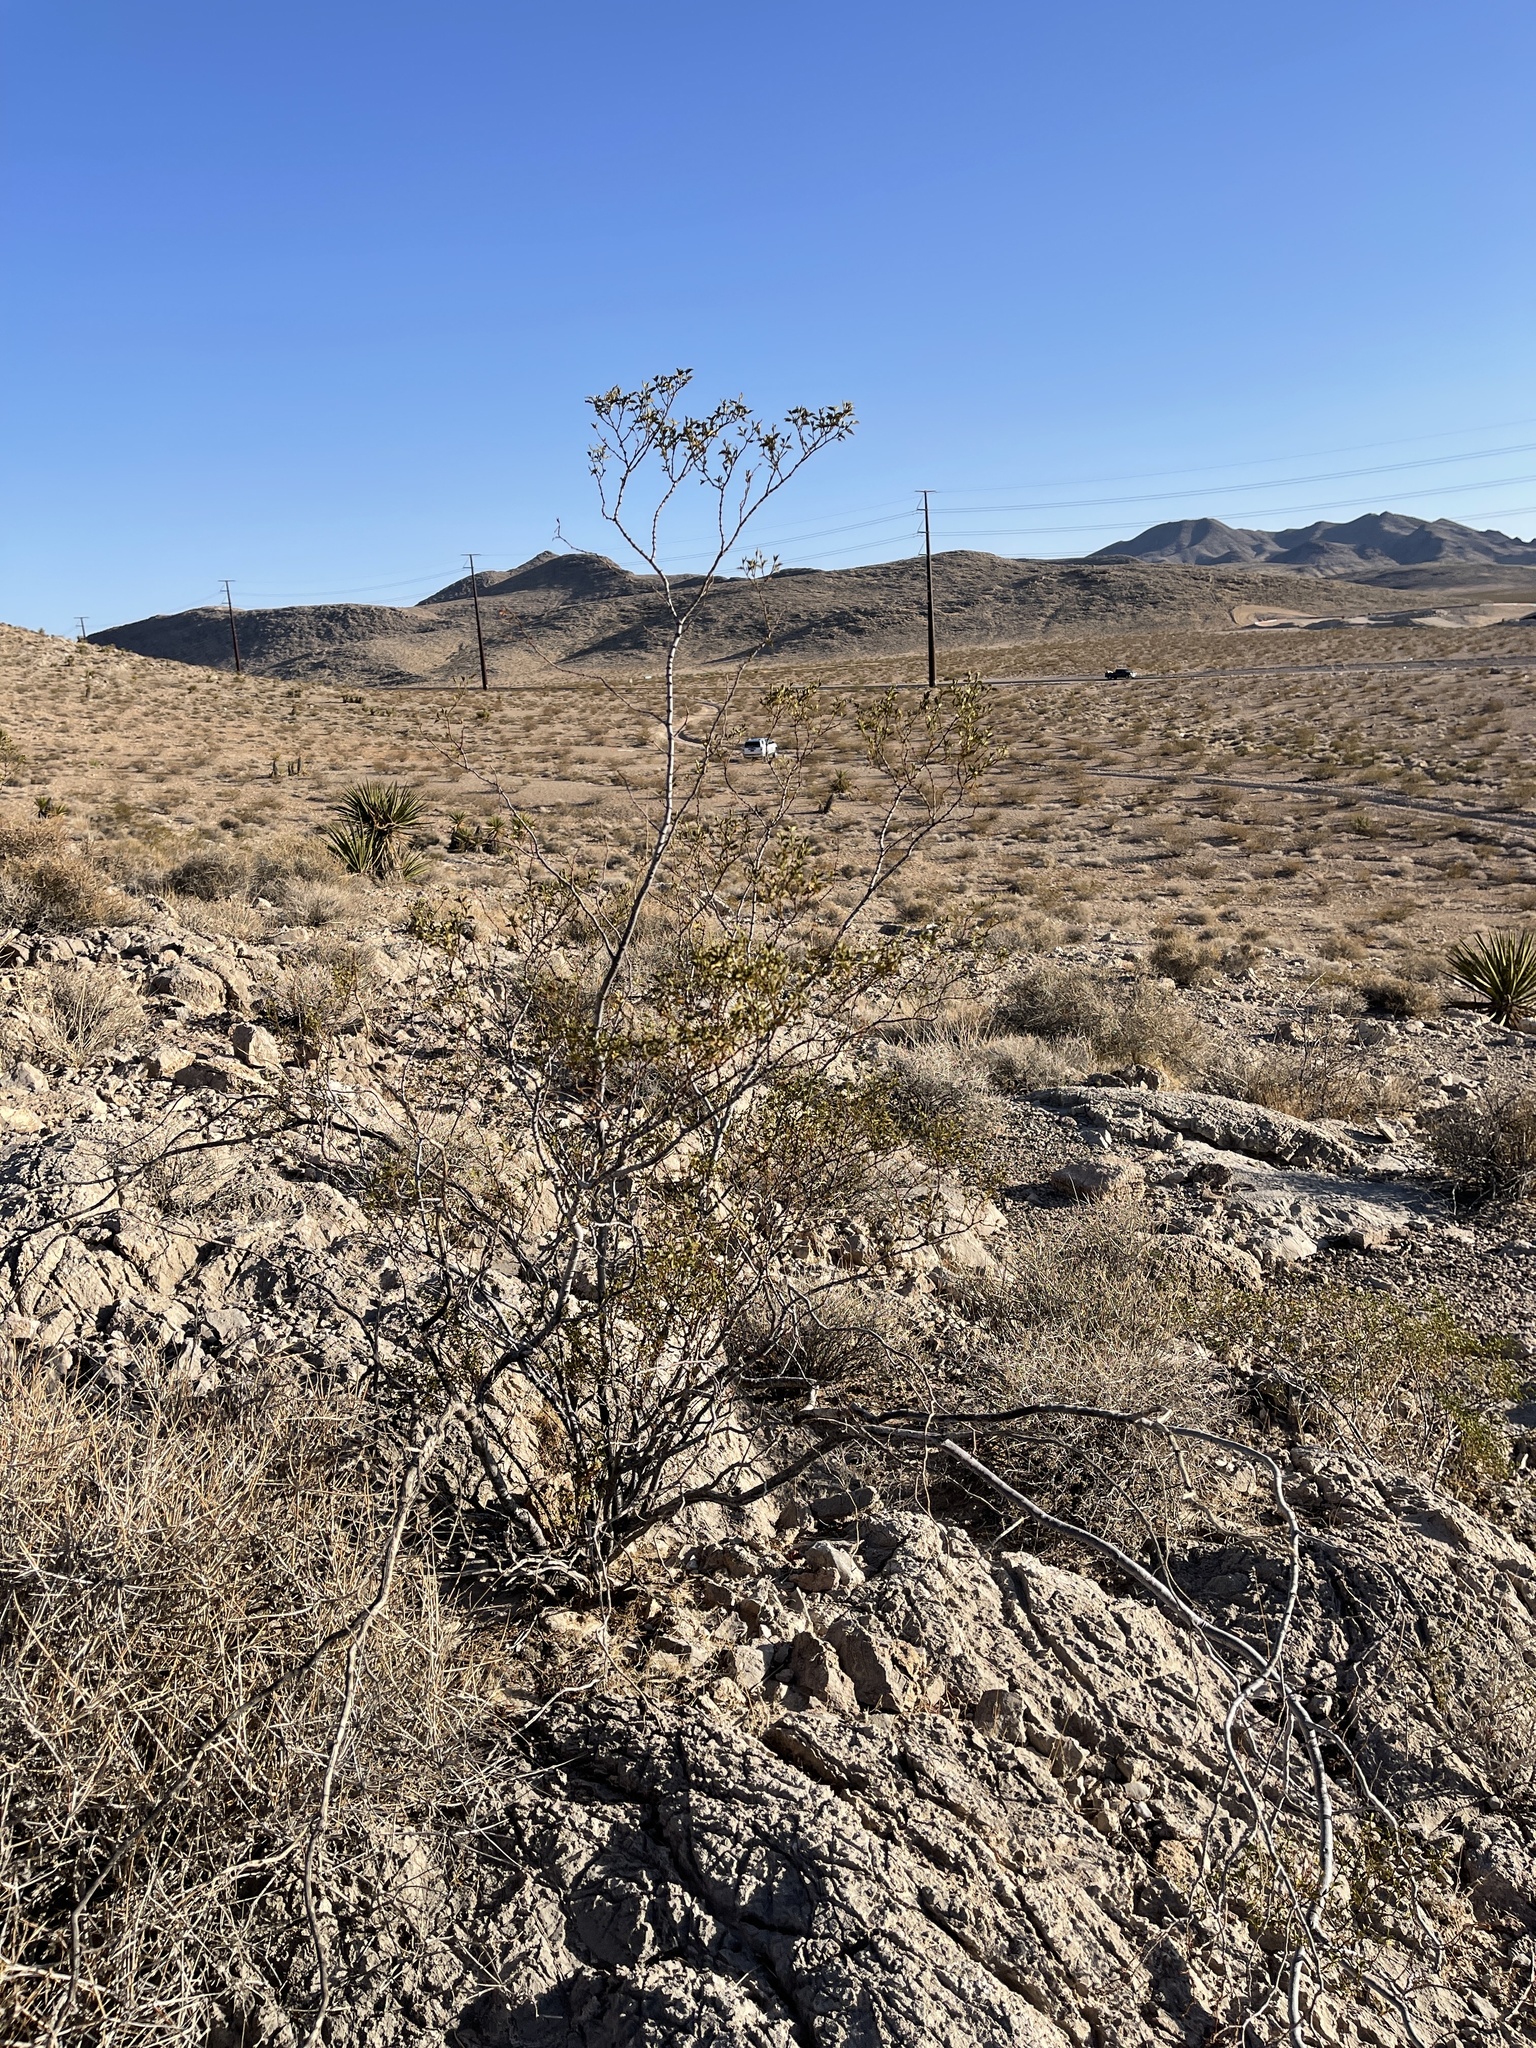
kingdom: Plantae
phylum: Tracheophyta
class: Magnoliopsida
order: Zygophyllales
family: Zygophyllaceae
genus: Larrea
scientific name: Larrea tridentata
